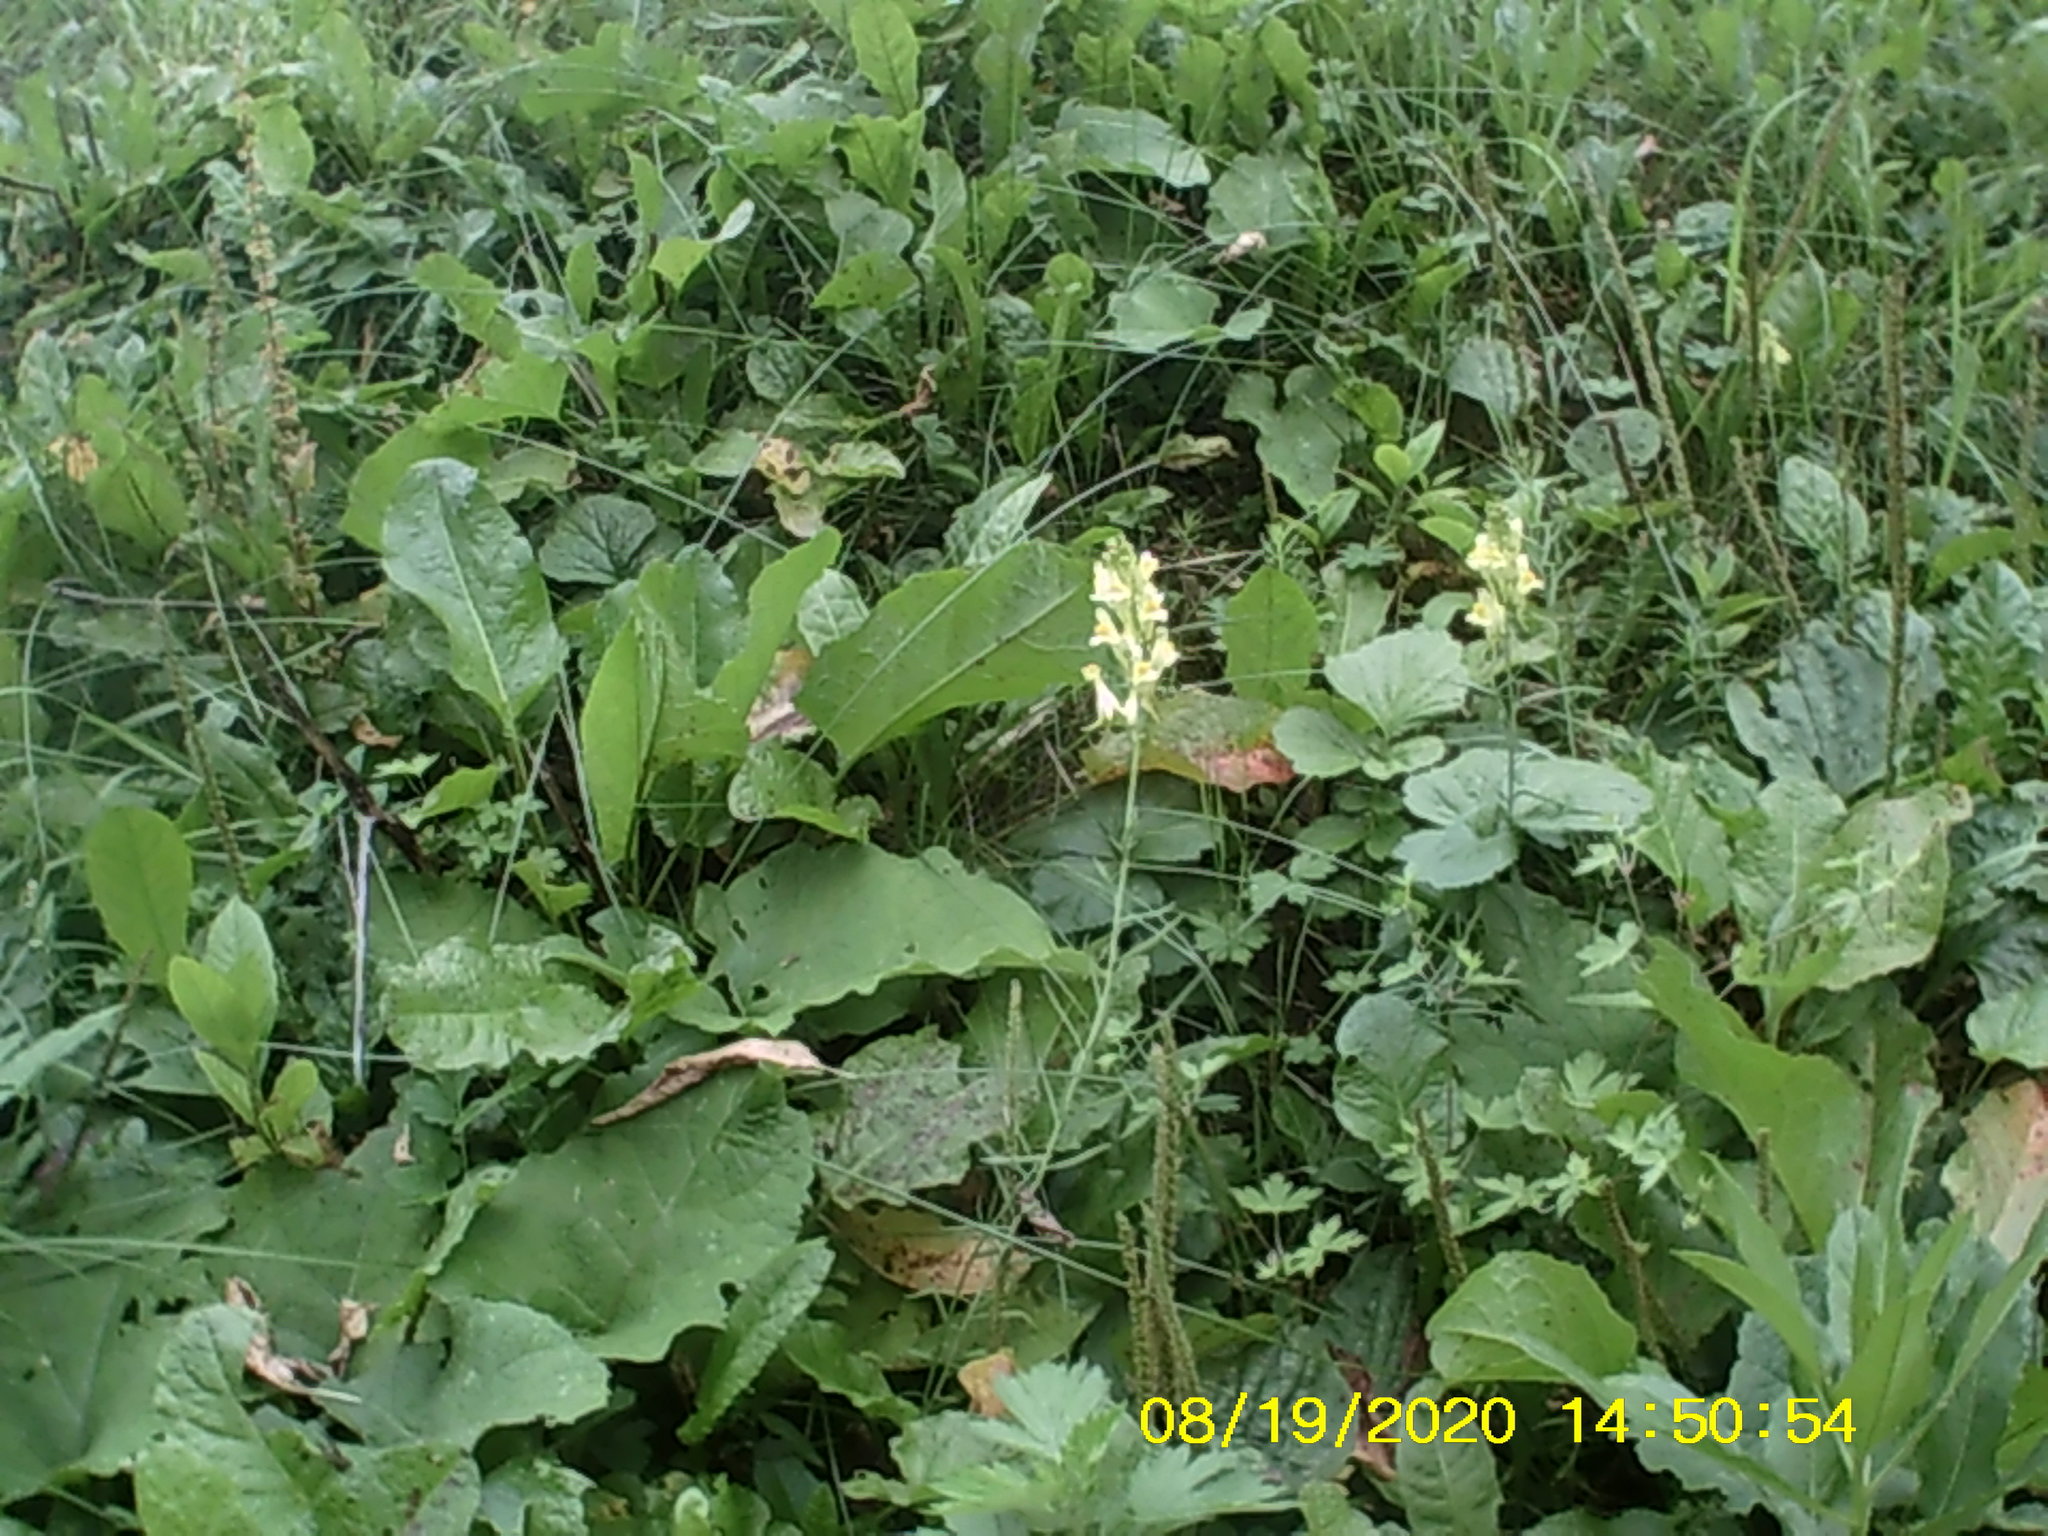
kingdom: Plantae
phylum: Tracheophyta
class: Magnoliopsida
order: Lamiales
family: Plantaginaceae
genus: Linaria
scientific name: Linaria vulgaris
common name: Butter and eggs
